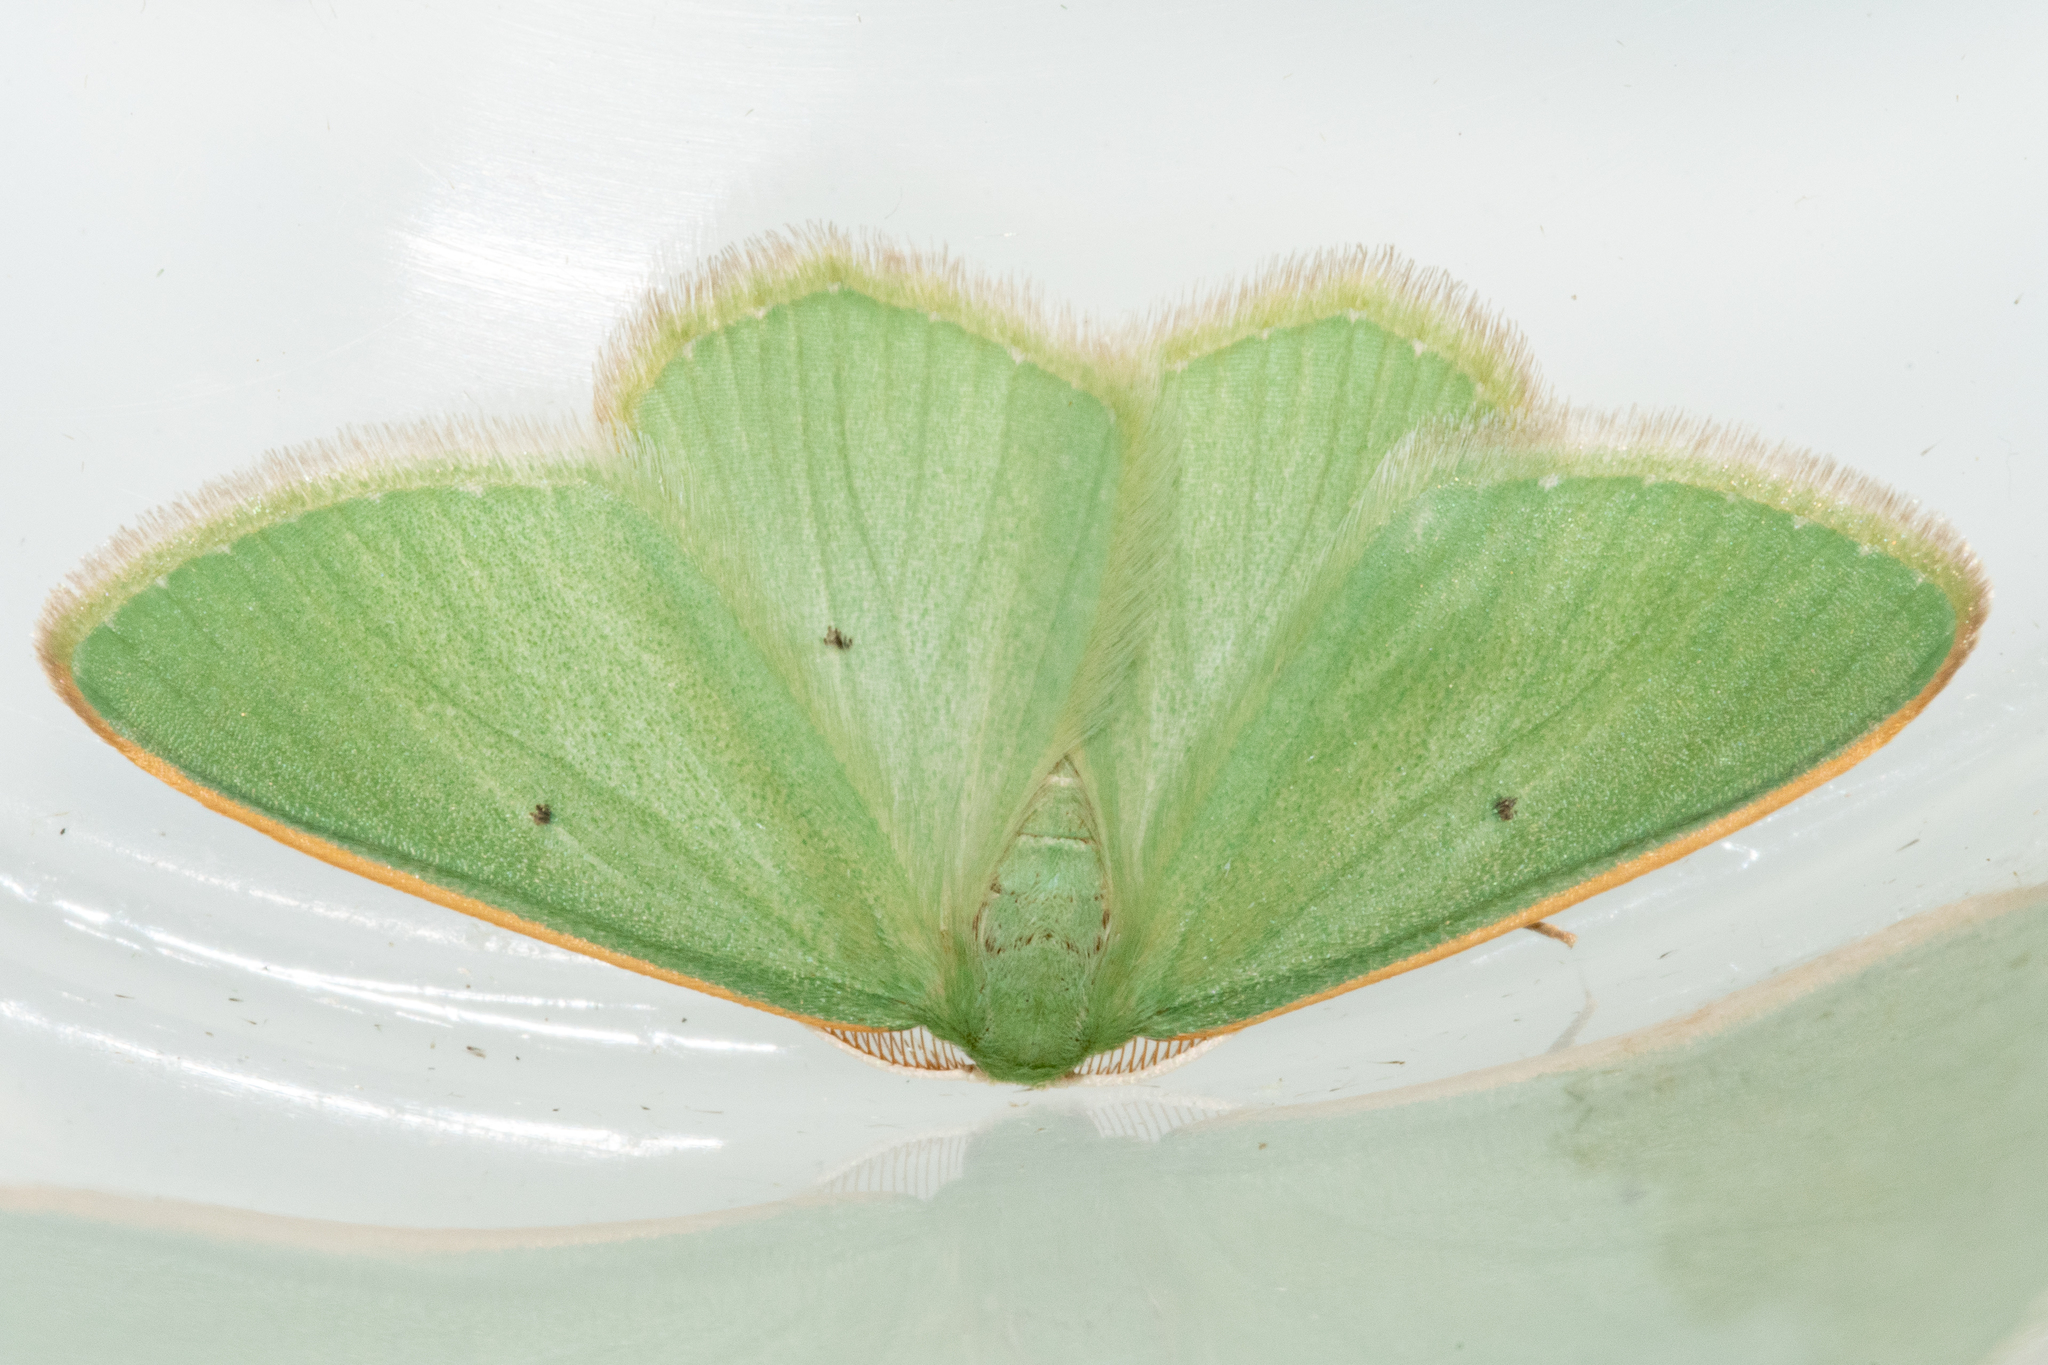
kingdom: Animalia
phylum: Arthropoda
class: Insecta
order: Lepidoptera
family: Geometridae
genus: Chlorocoma
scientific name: Chlorocoma didita
